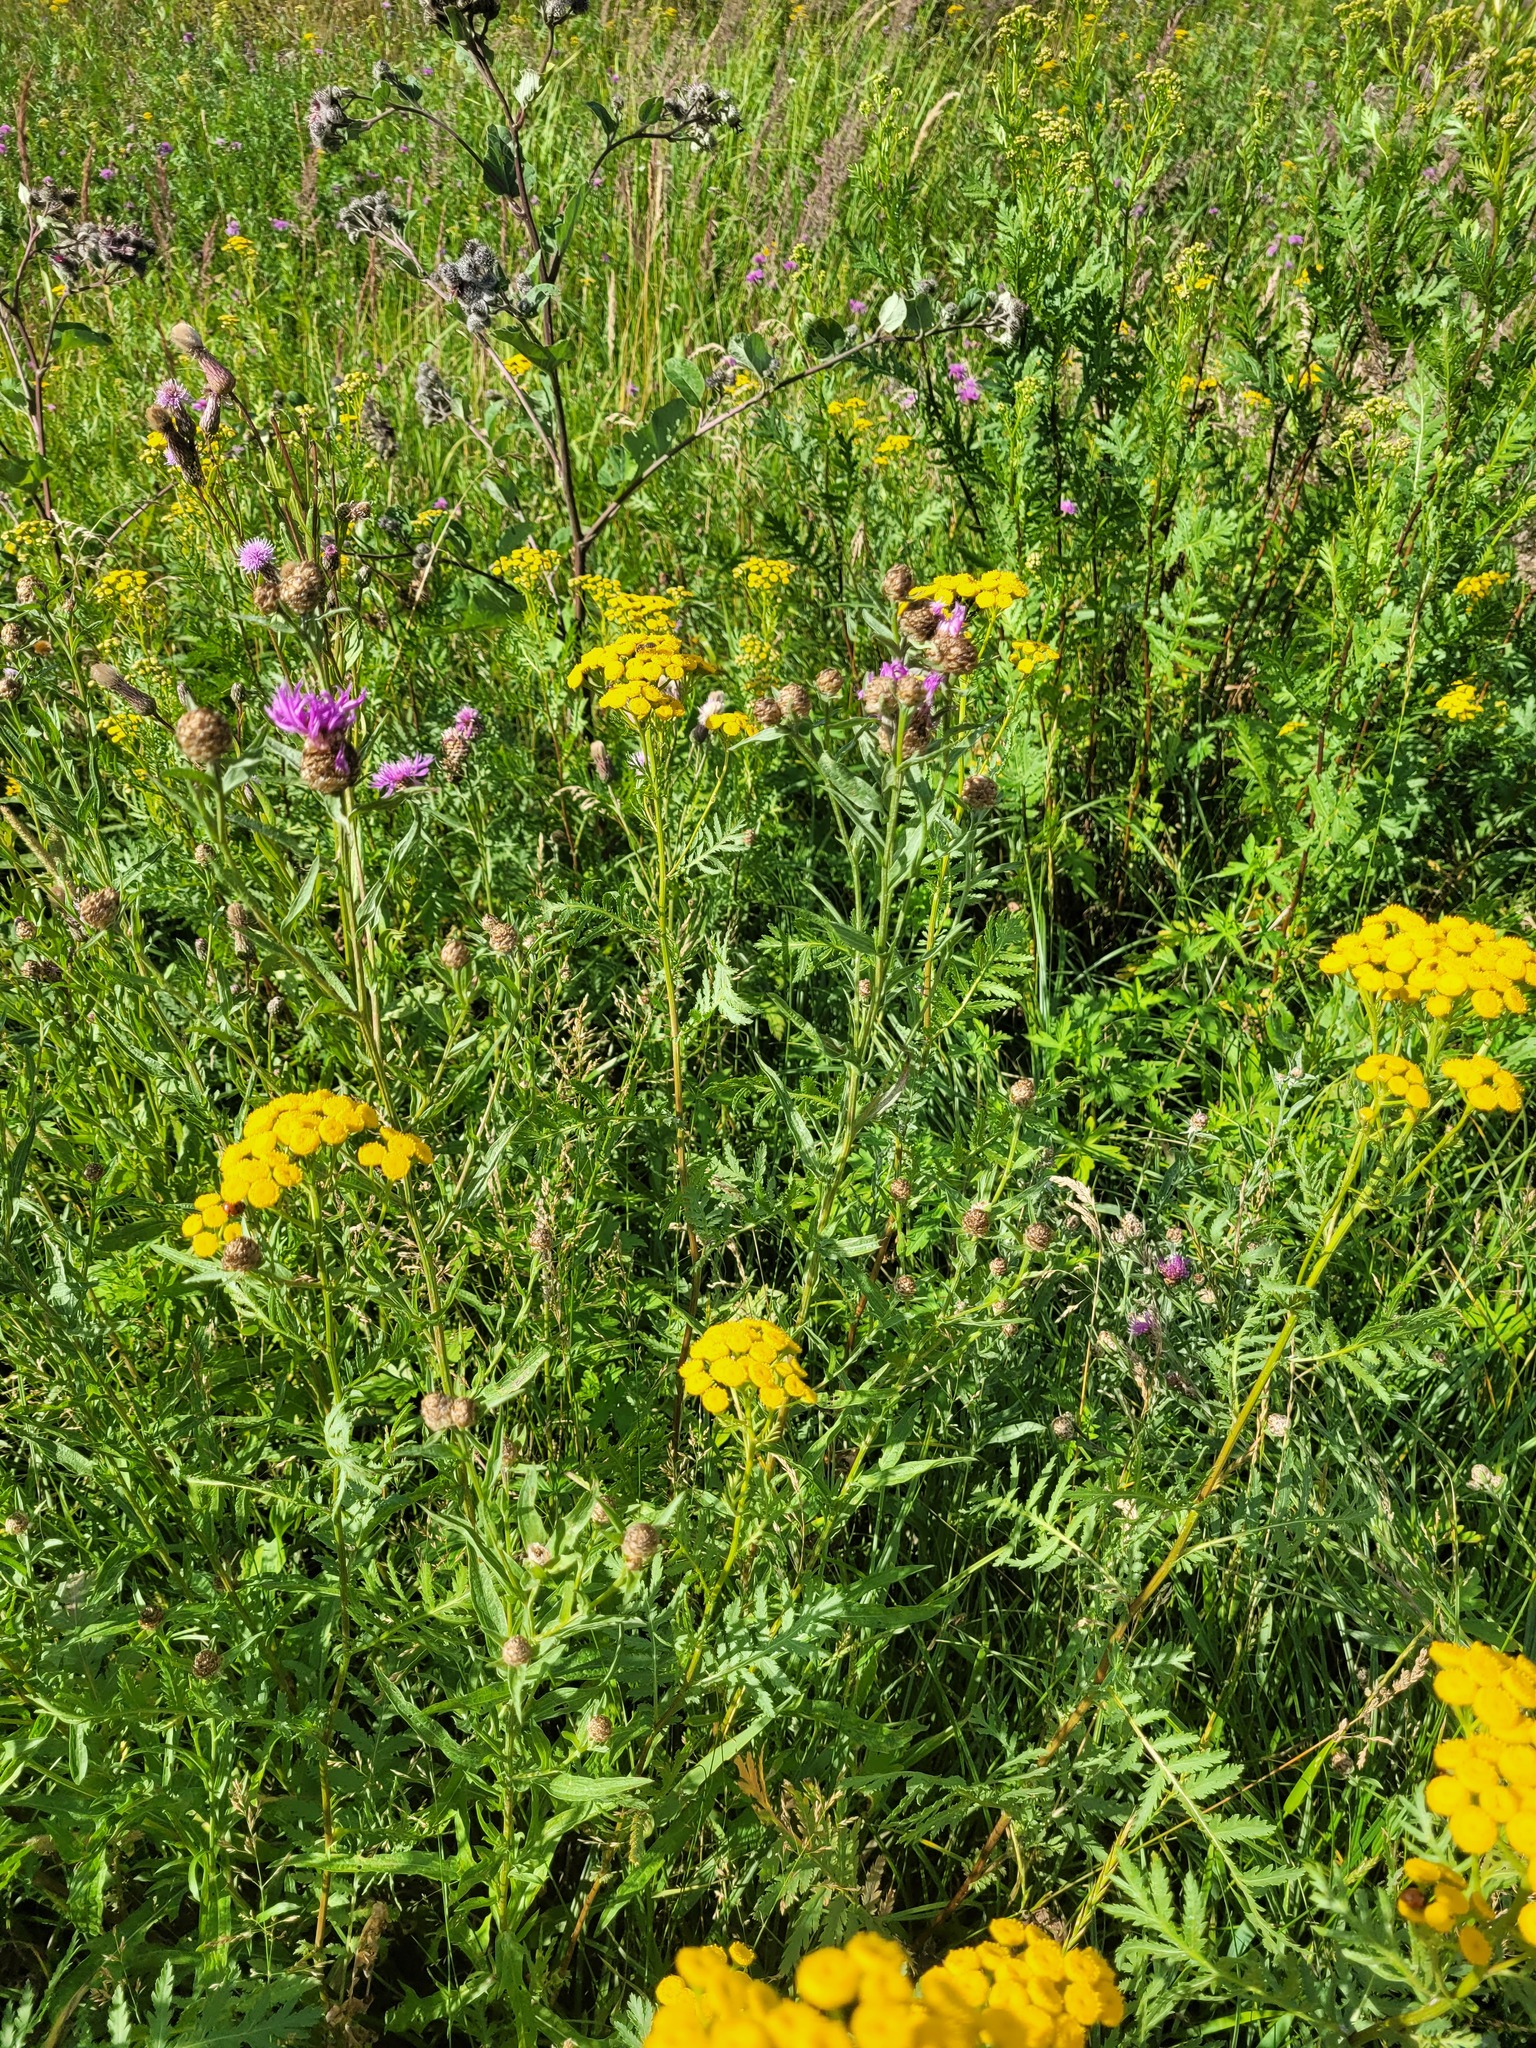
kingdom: Plantae
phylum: Tracheophyta
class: Magnoliopsida
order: Asterales
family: Asteraceae
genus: Tanacetum
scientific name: Tanacetum vulgare
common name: Common tansy
